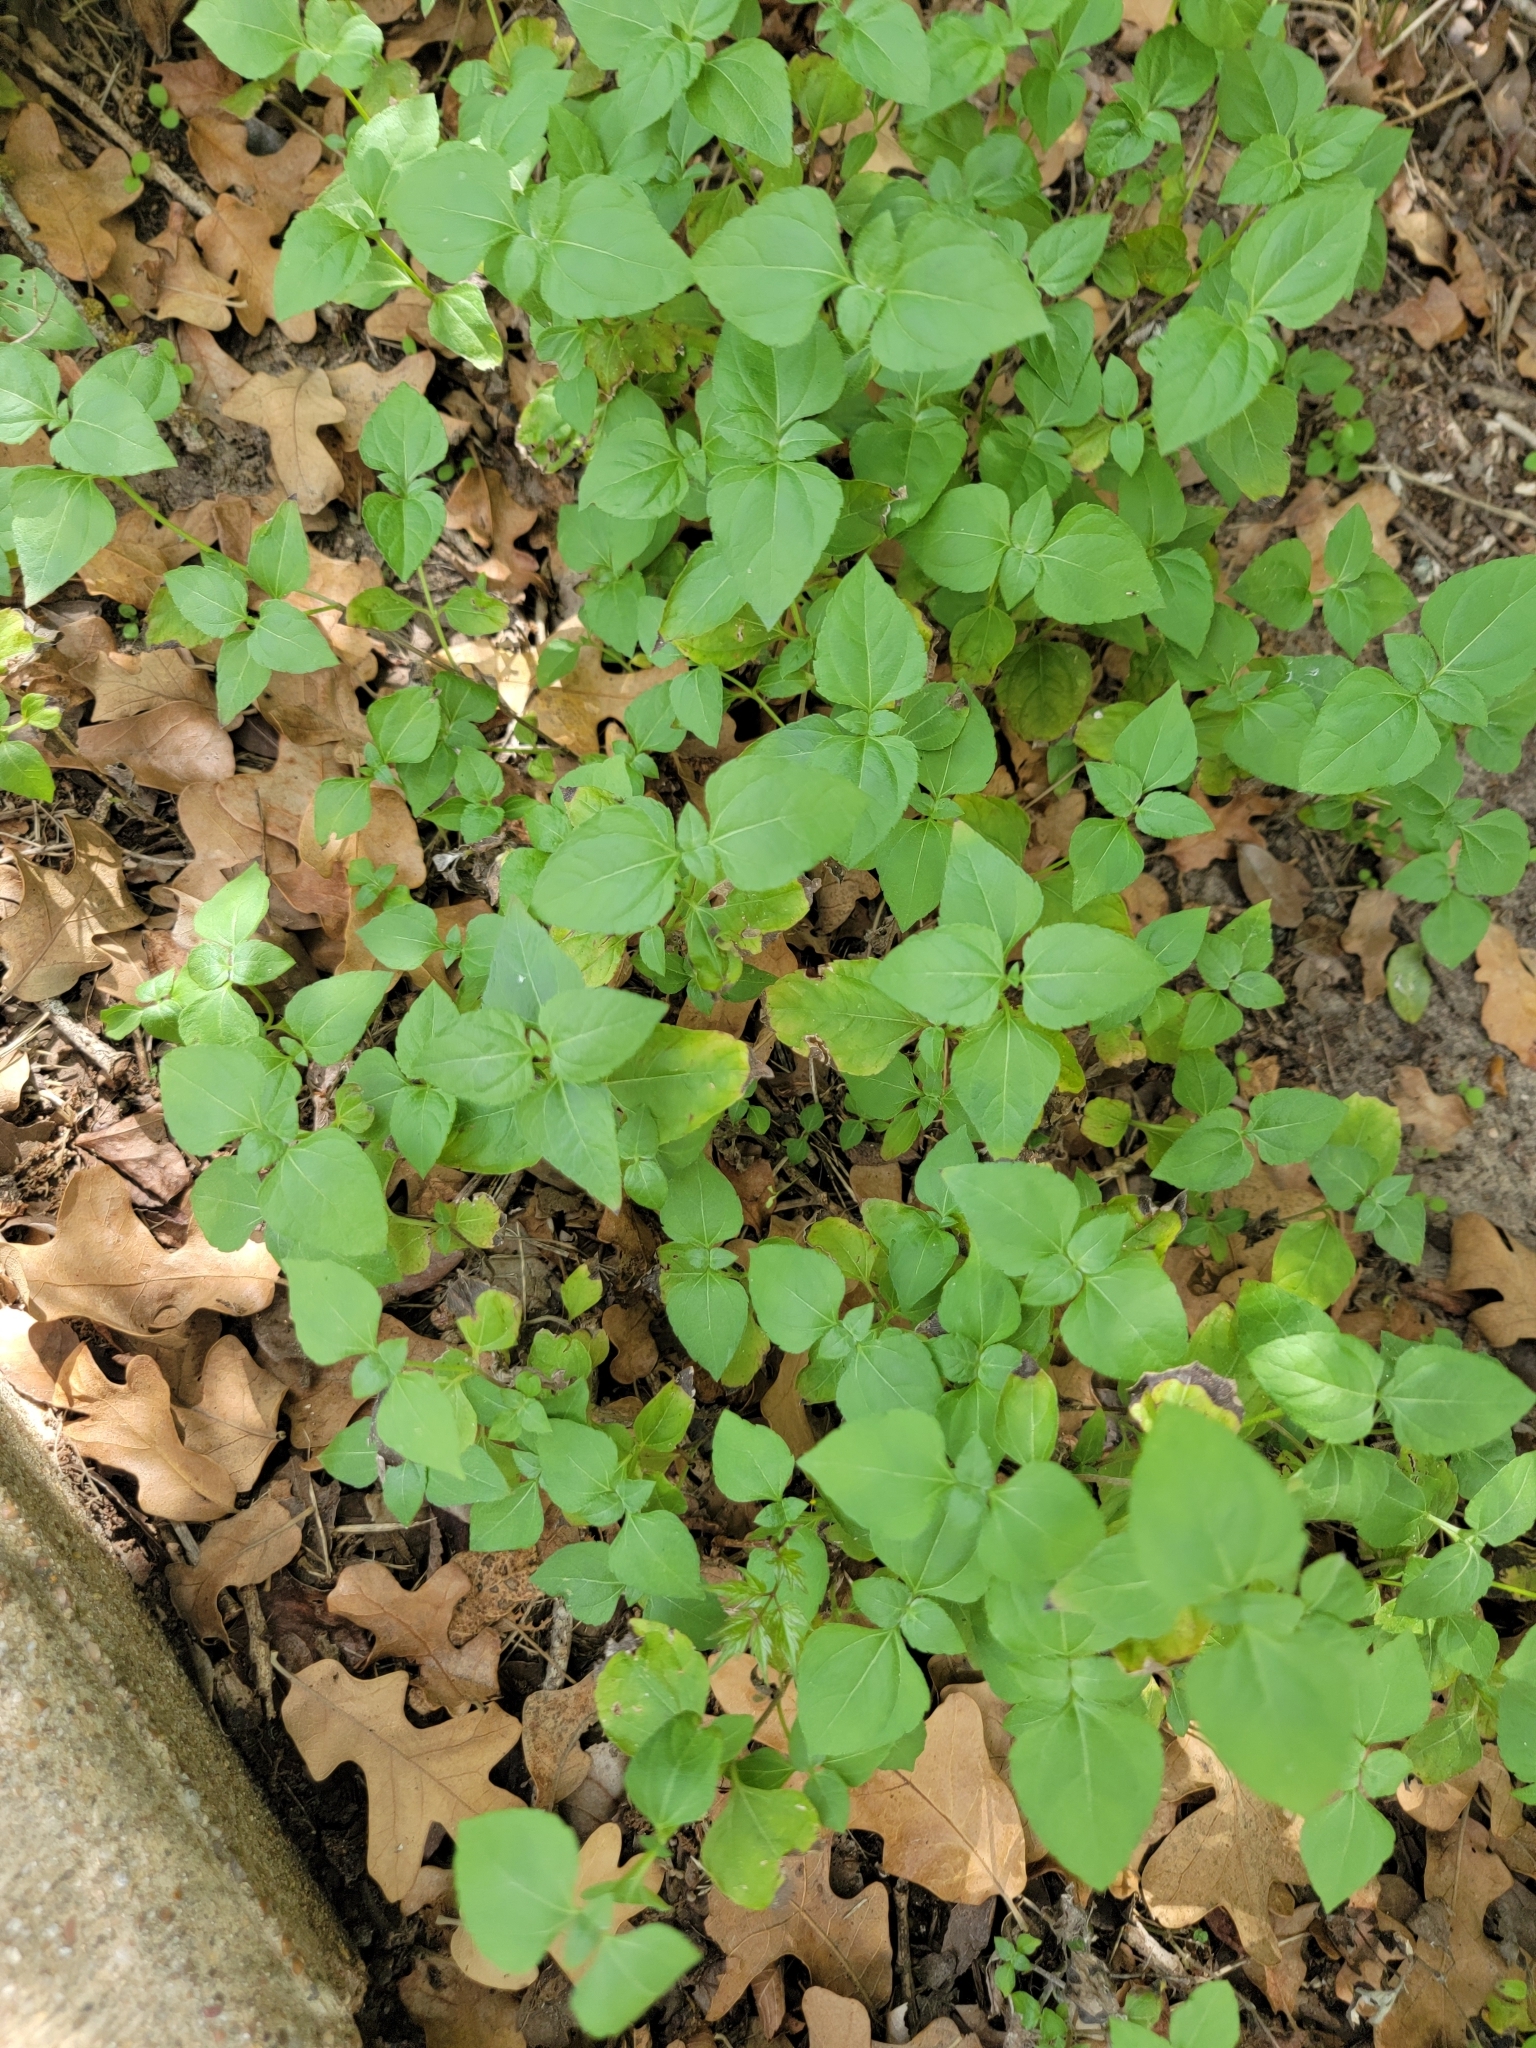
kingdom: Plantae
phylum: Tracheophyta
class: Magnoliopsida
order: Asterales
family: Asteraceae
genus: Calyptocarpus
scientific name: Calyptocarpus vialis
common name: Straggler daisy
